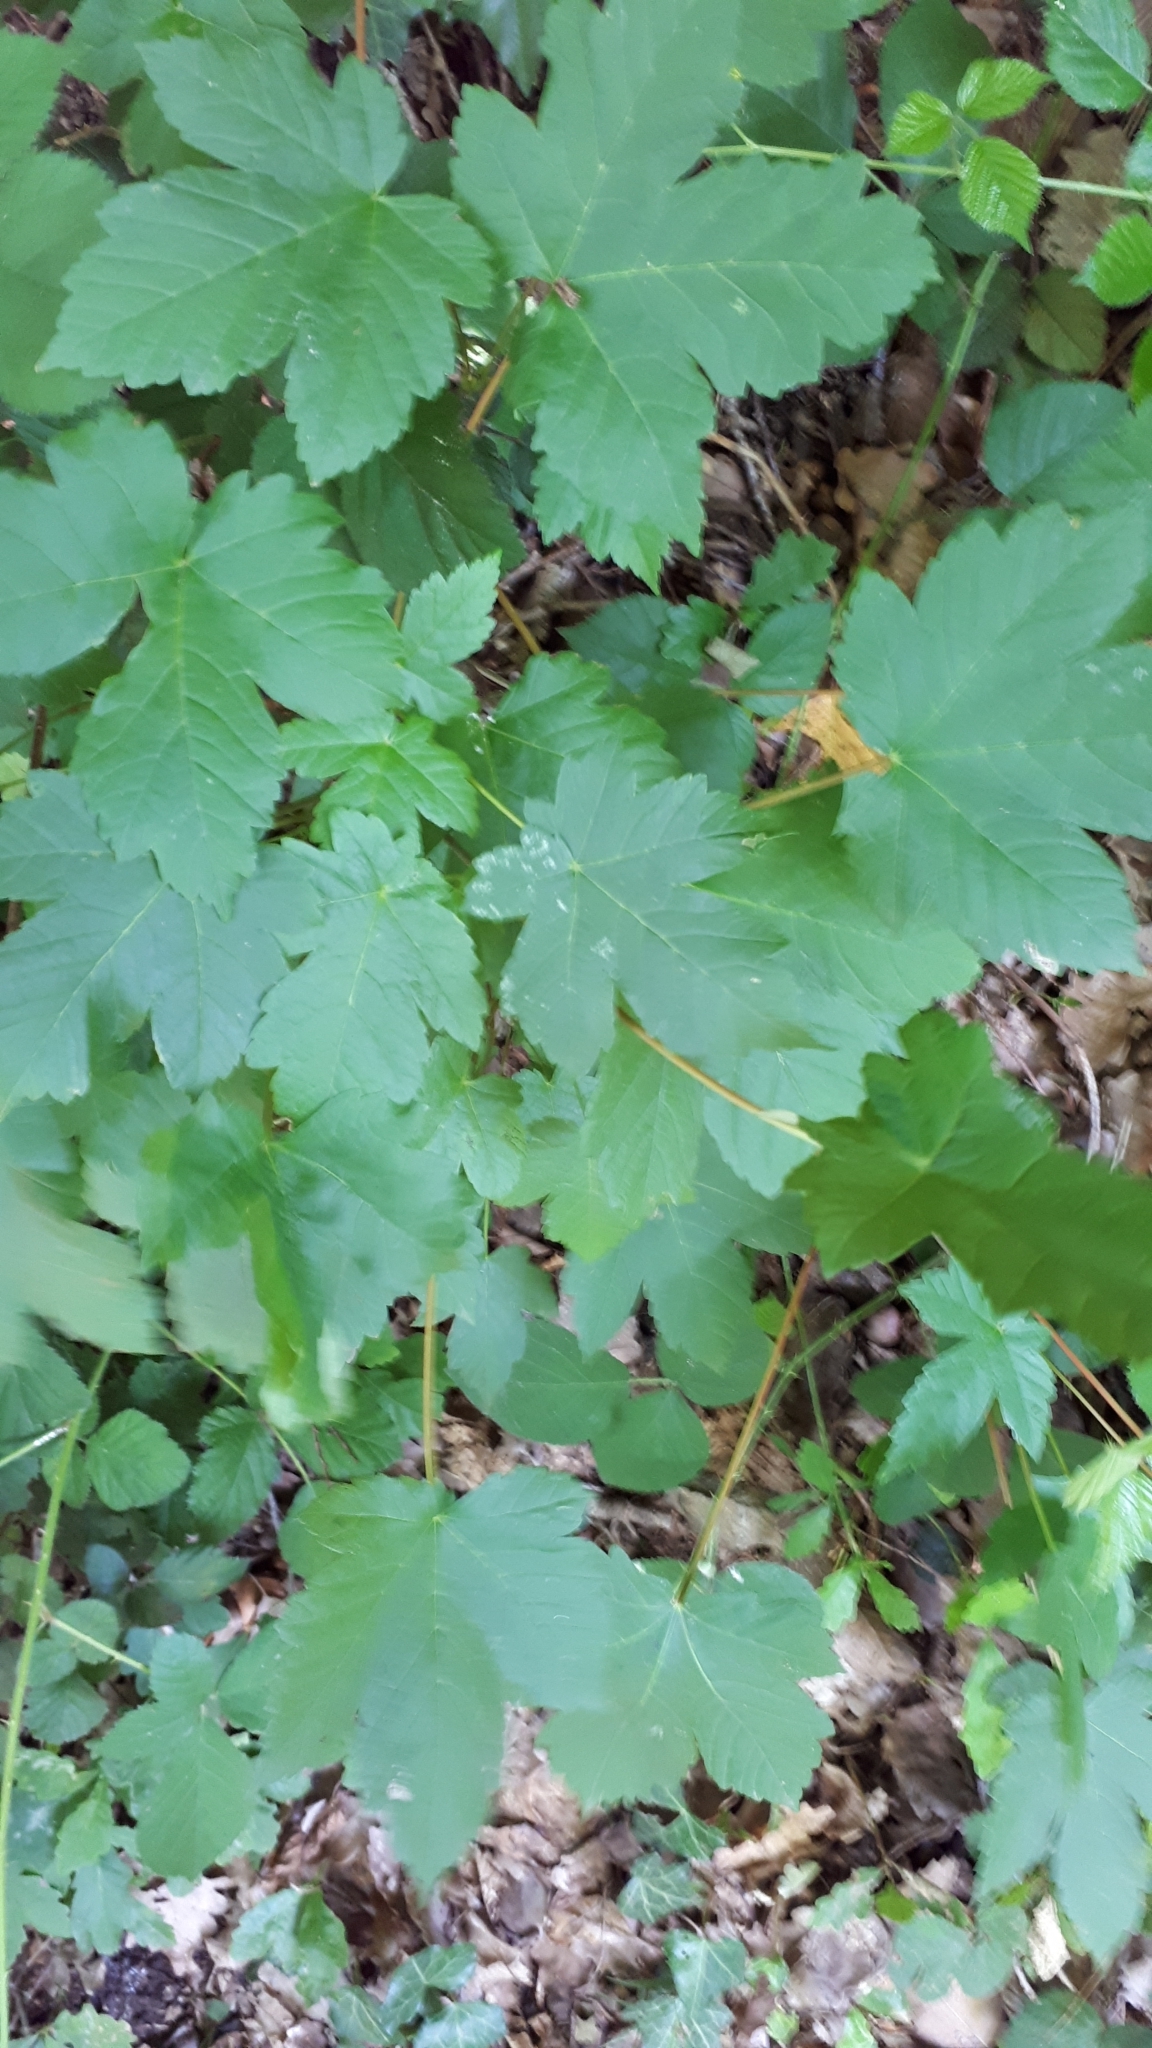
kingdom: Plantae
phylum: Tracheophyta
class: Magnoliopsida
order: Sapindales
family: Sapindaceae
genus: Acer
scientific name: Acer pseudoplatanus
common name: Sycamore
